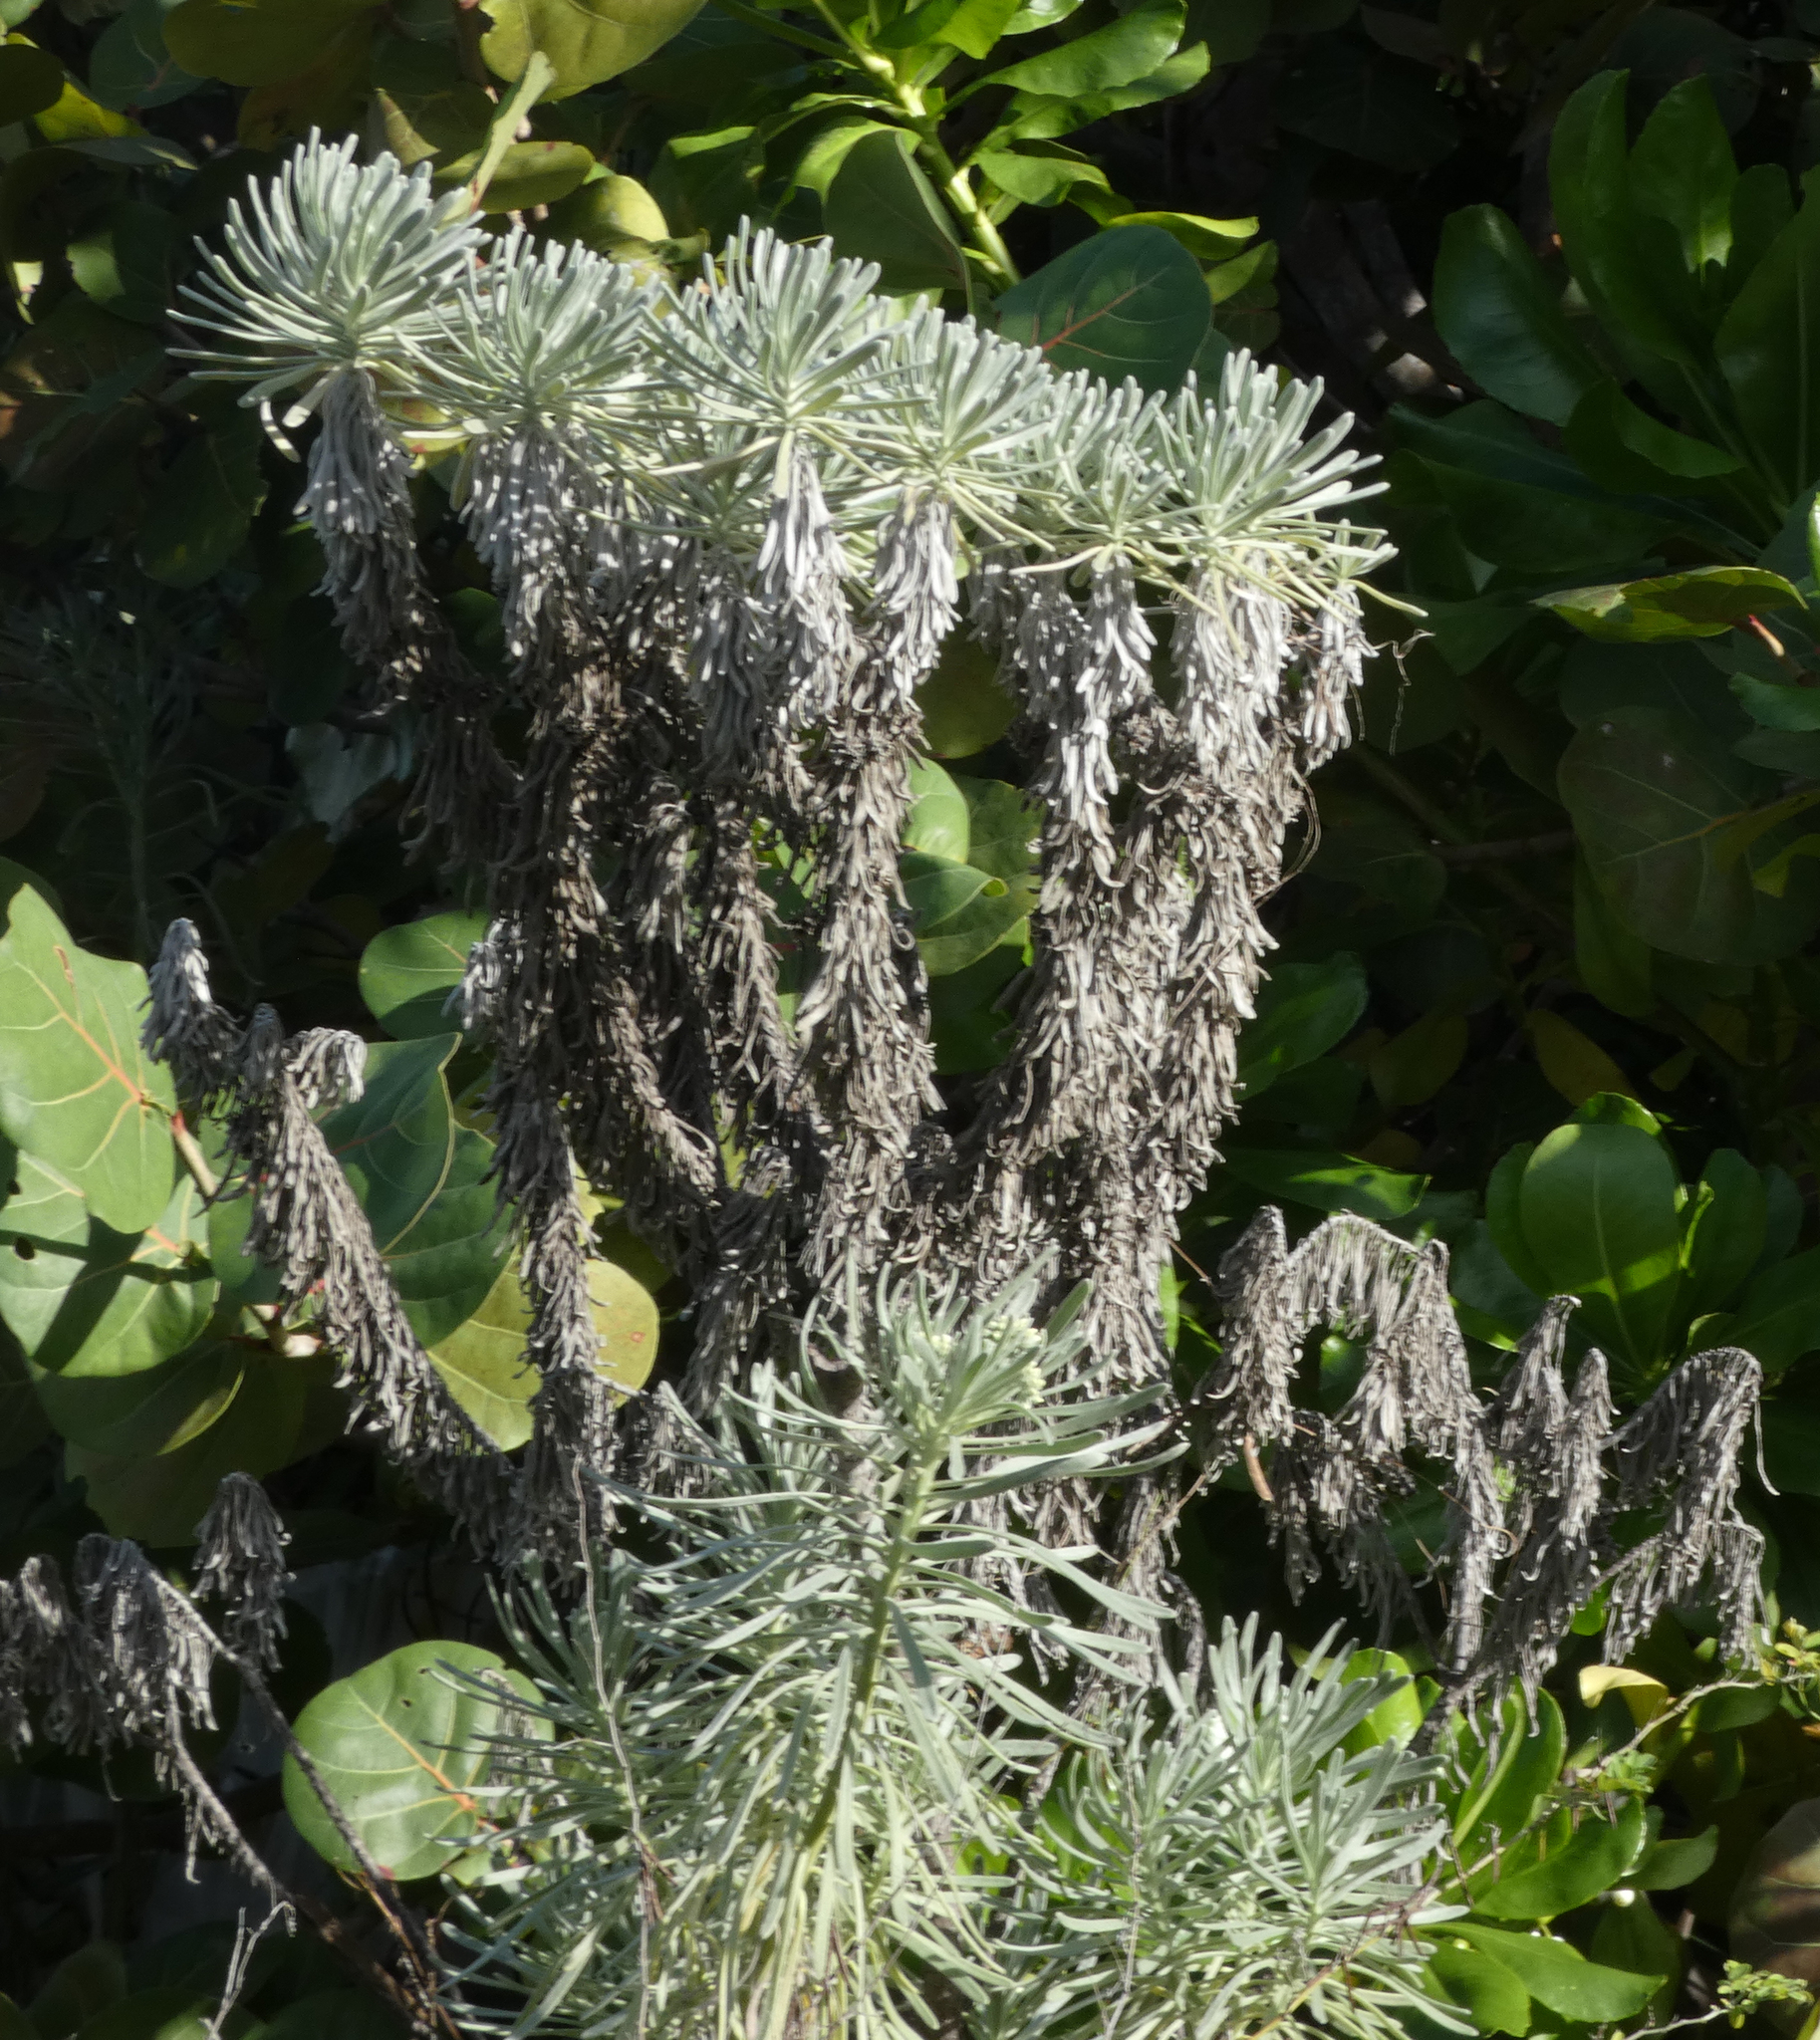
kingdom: Plantae
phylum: Tracheophyta
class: Magnoliopsida
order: Boraginales
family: Heliotropiaceae
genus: Tournefortia
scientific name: Tournefortia gnaphalodes
